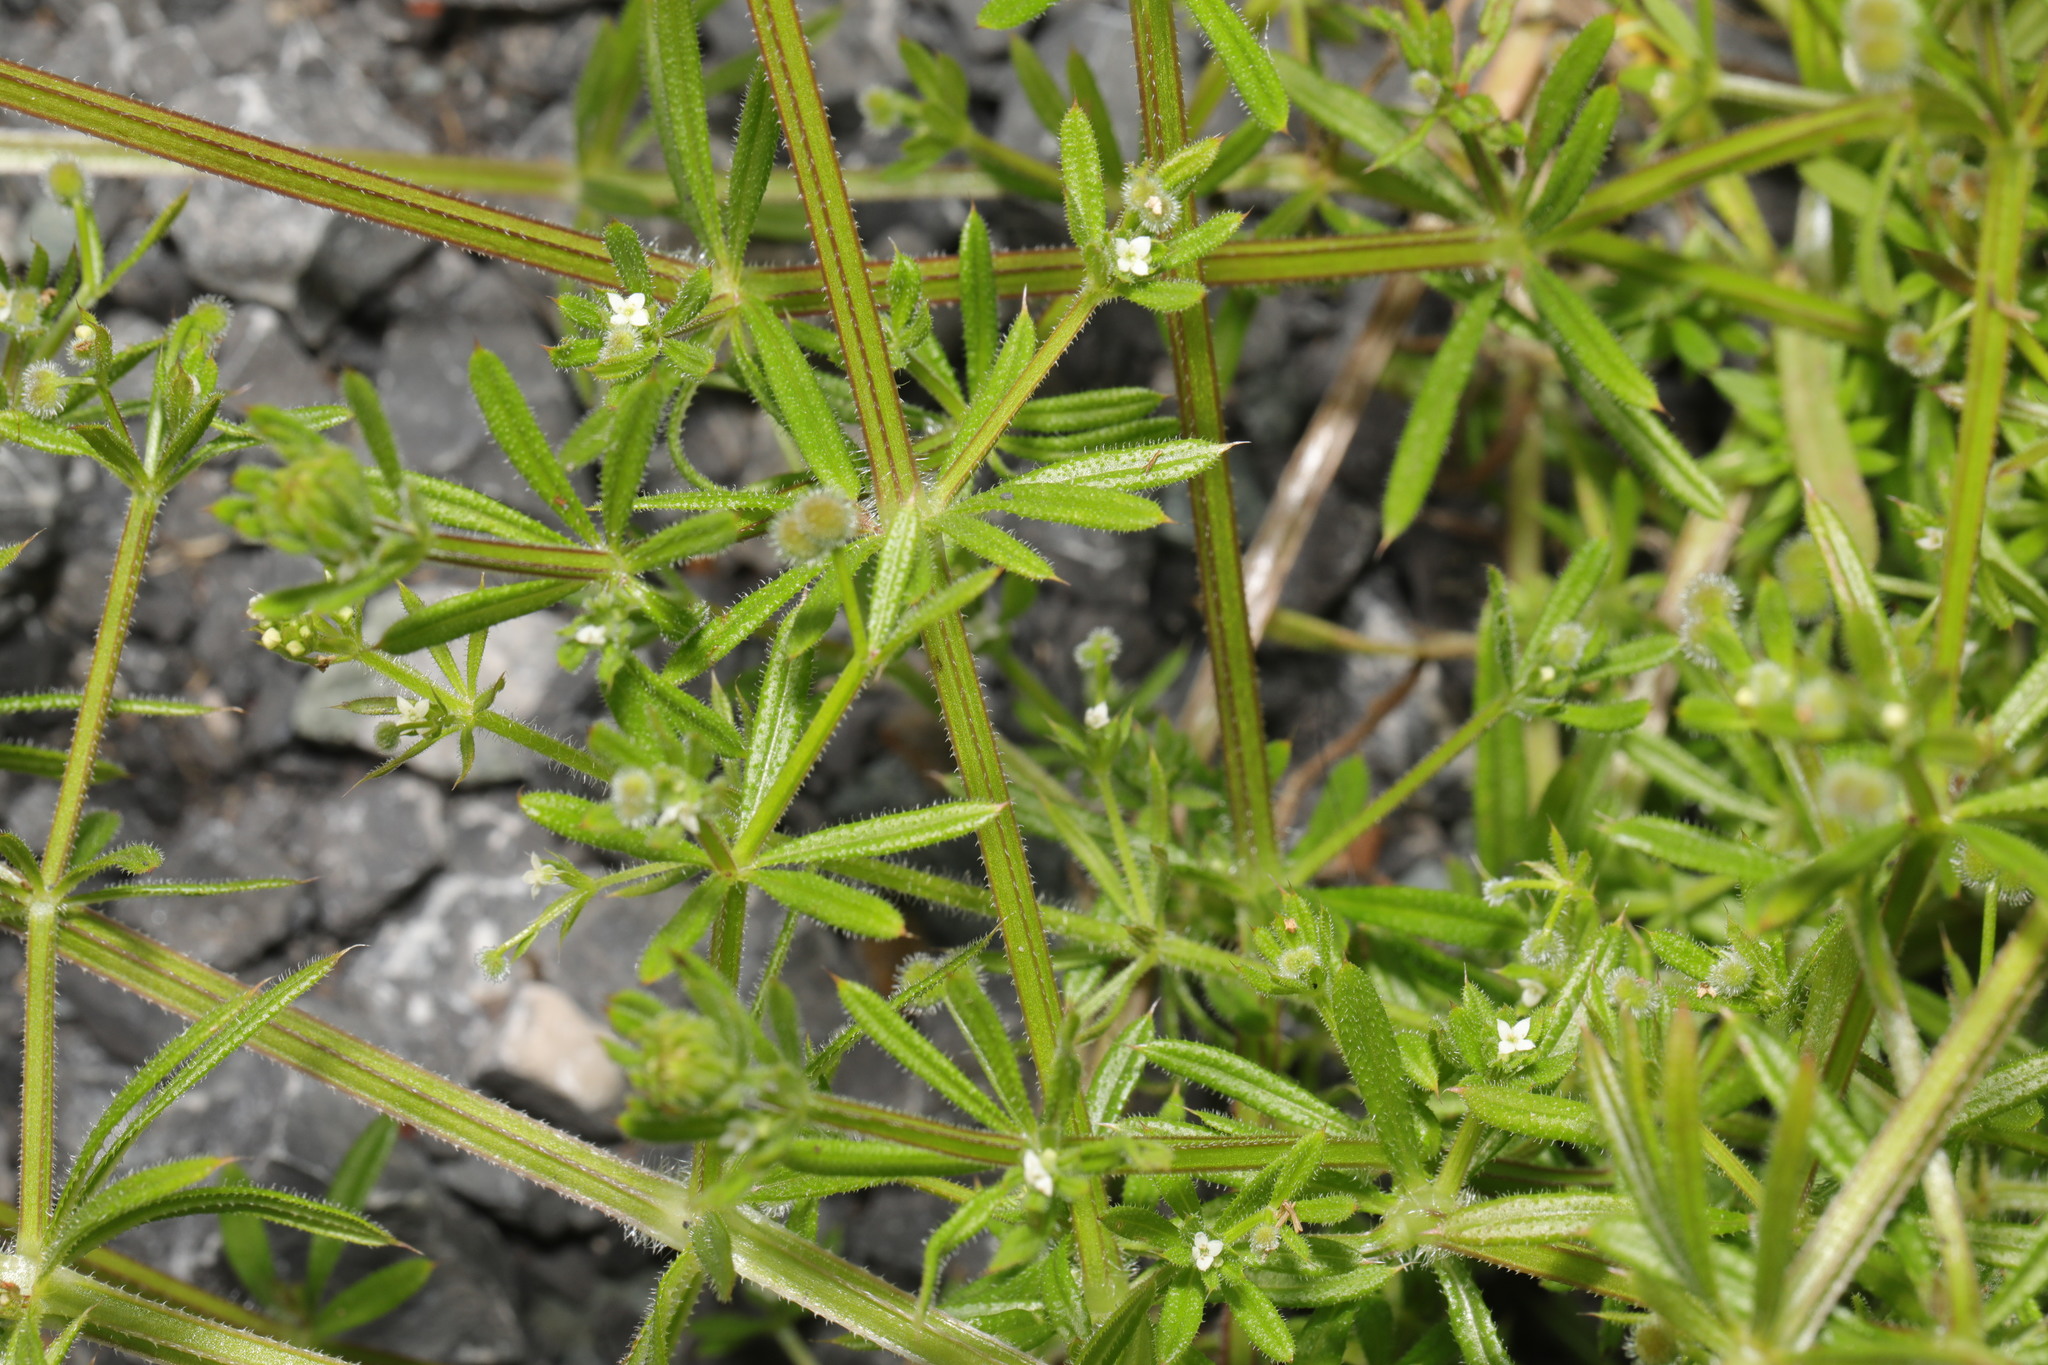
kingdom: Plantae
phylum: Tracheophyta
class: Magnoliopsida
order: Gentianales
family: Rubiaceae
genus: Galium
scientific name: Galium aparine
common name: Cleavers
